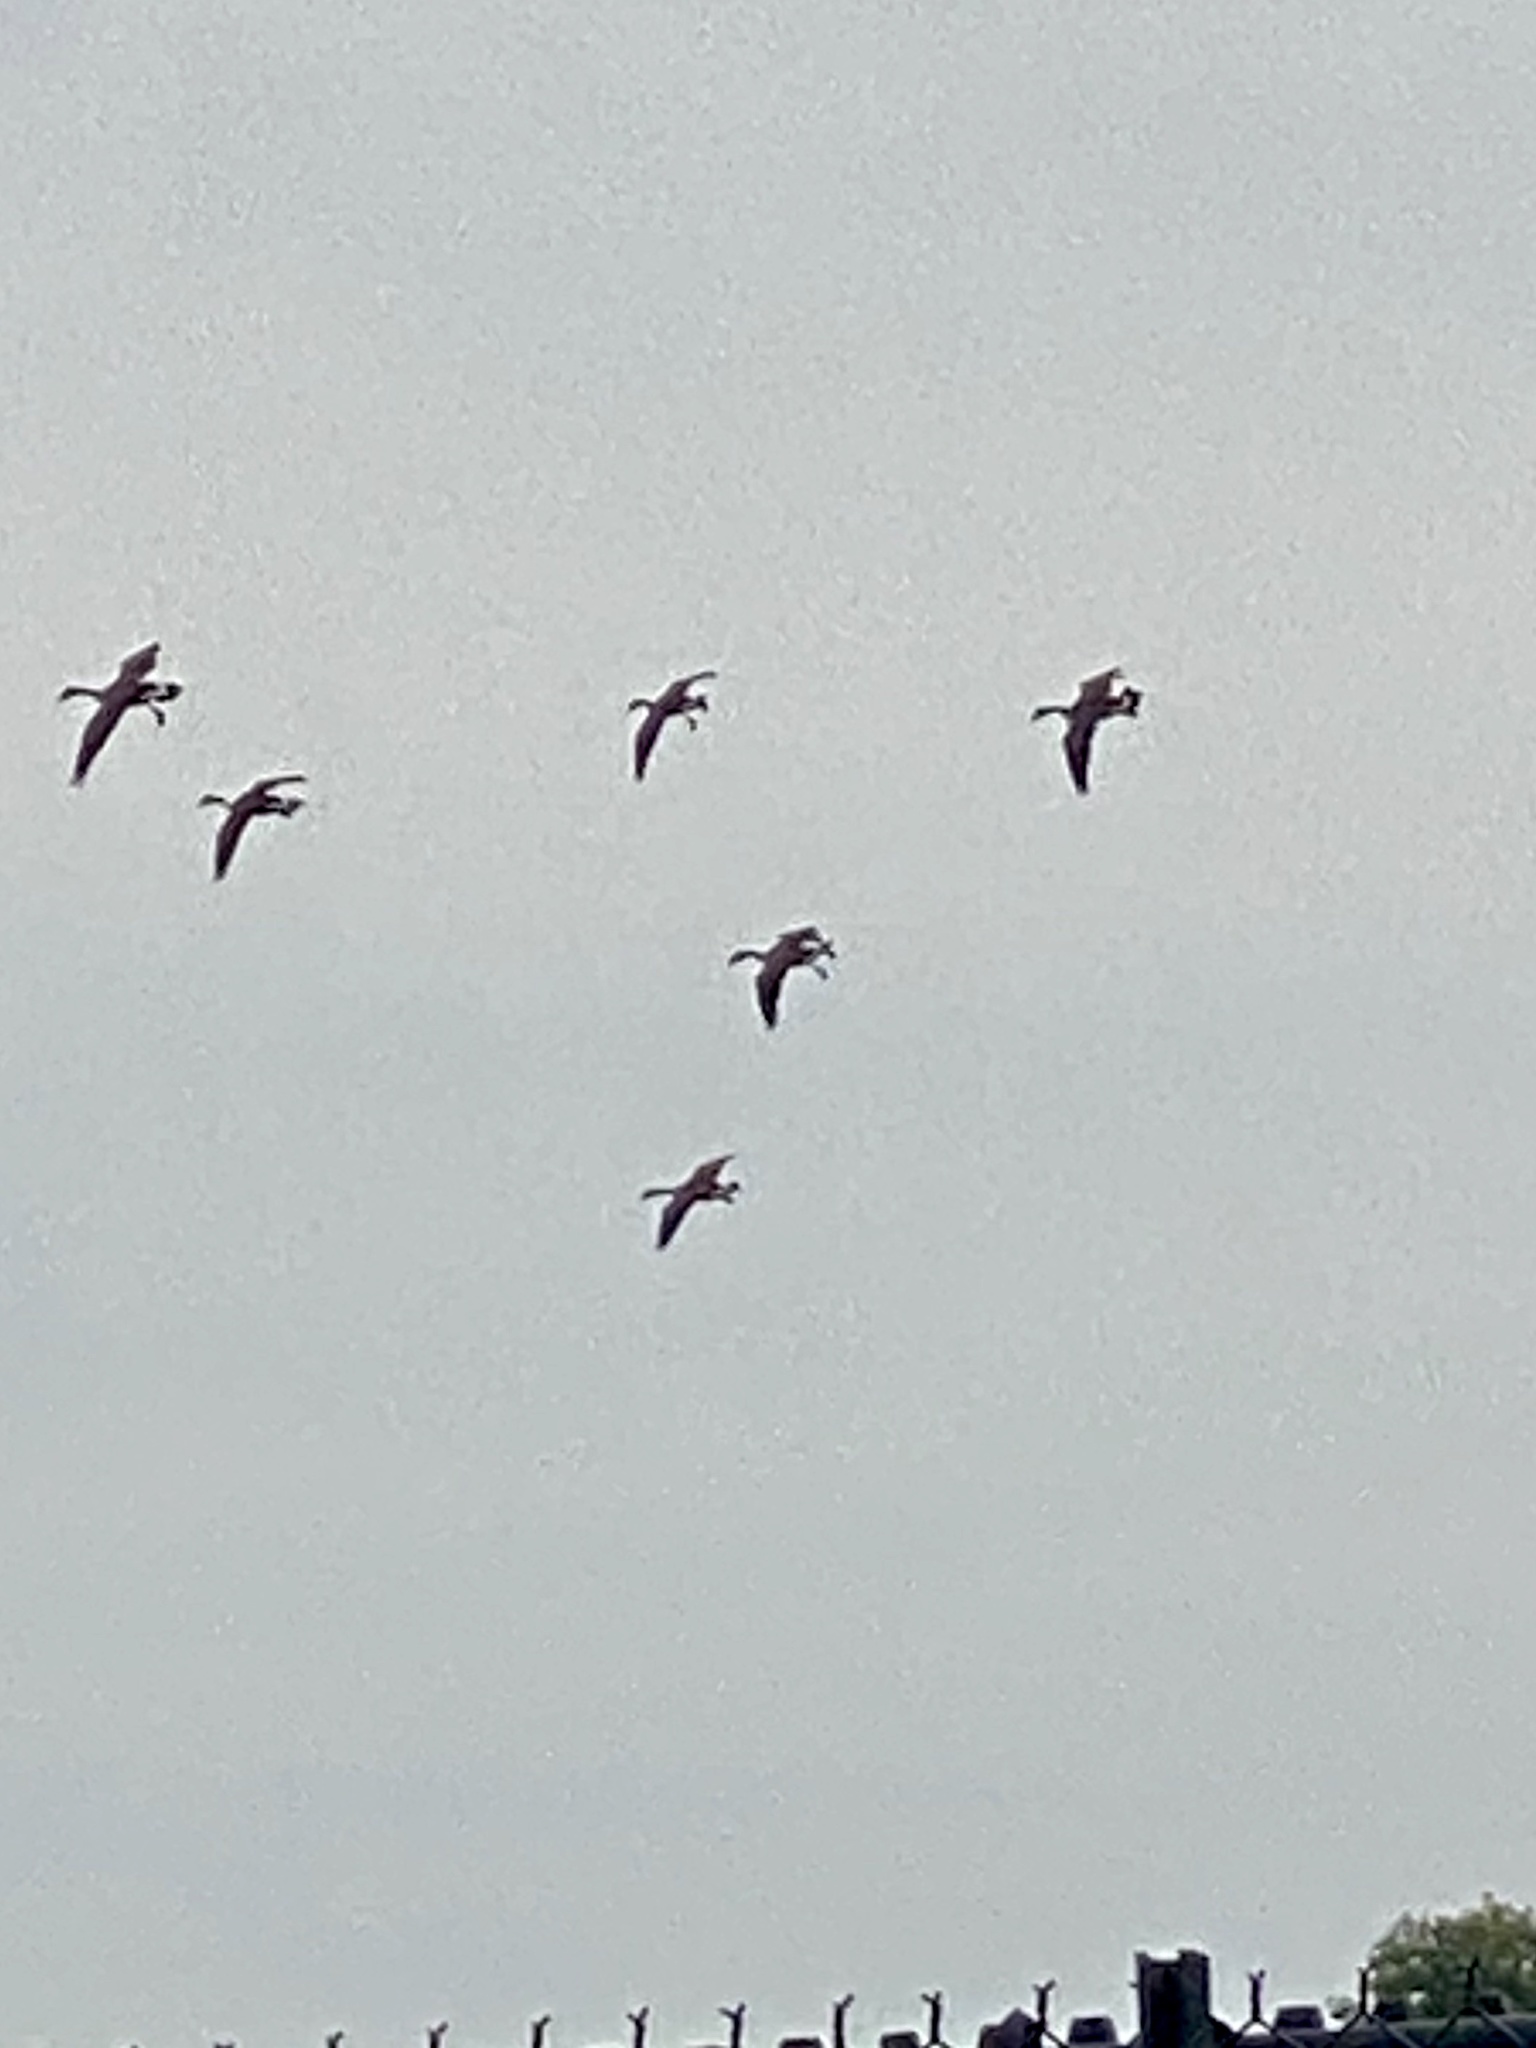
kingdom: Animalia
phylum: Chordata
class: Aves
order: Anseriformes
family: Anatidae
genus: Branta
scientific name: Branta canadensis
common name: Canada goose
